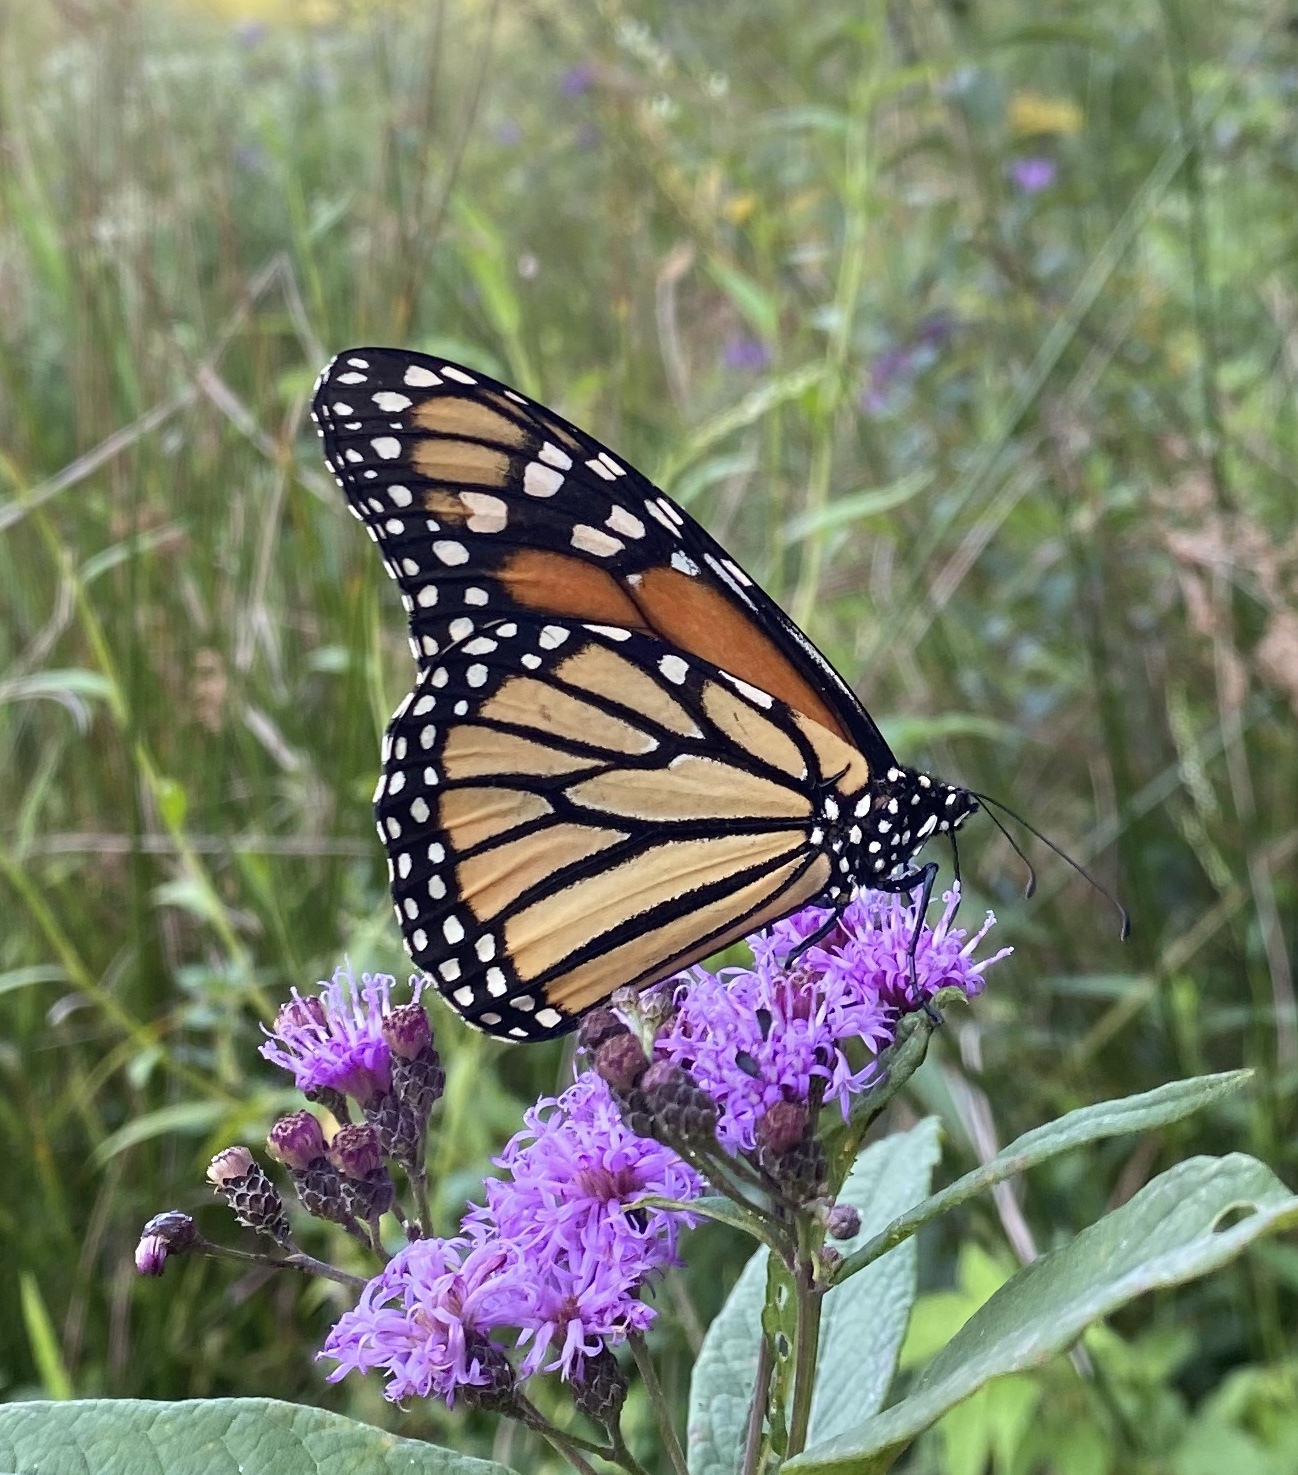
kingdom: Animalia
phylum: Arthropoda
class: Insecta
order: Lepidoptera
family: Nymphalidae
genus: Danaus
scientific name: Danaus plexippus
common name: Monarch
